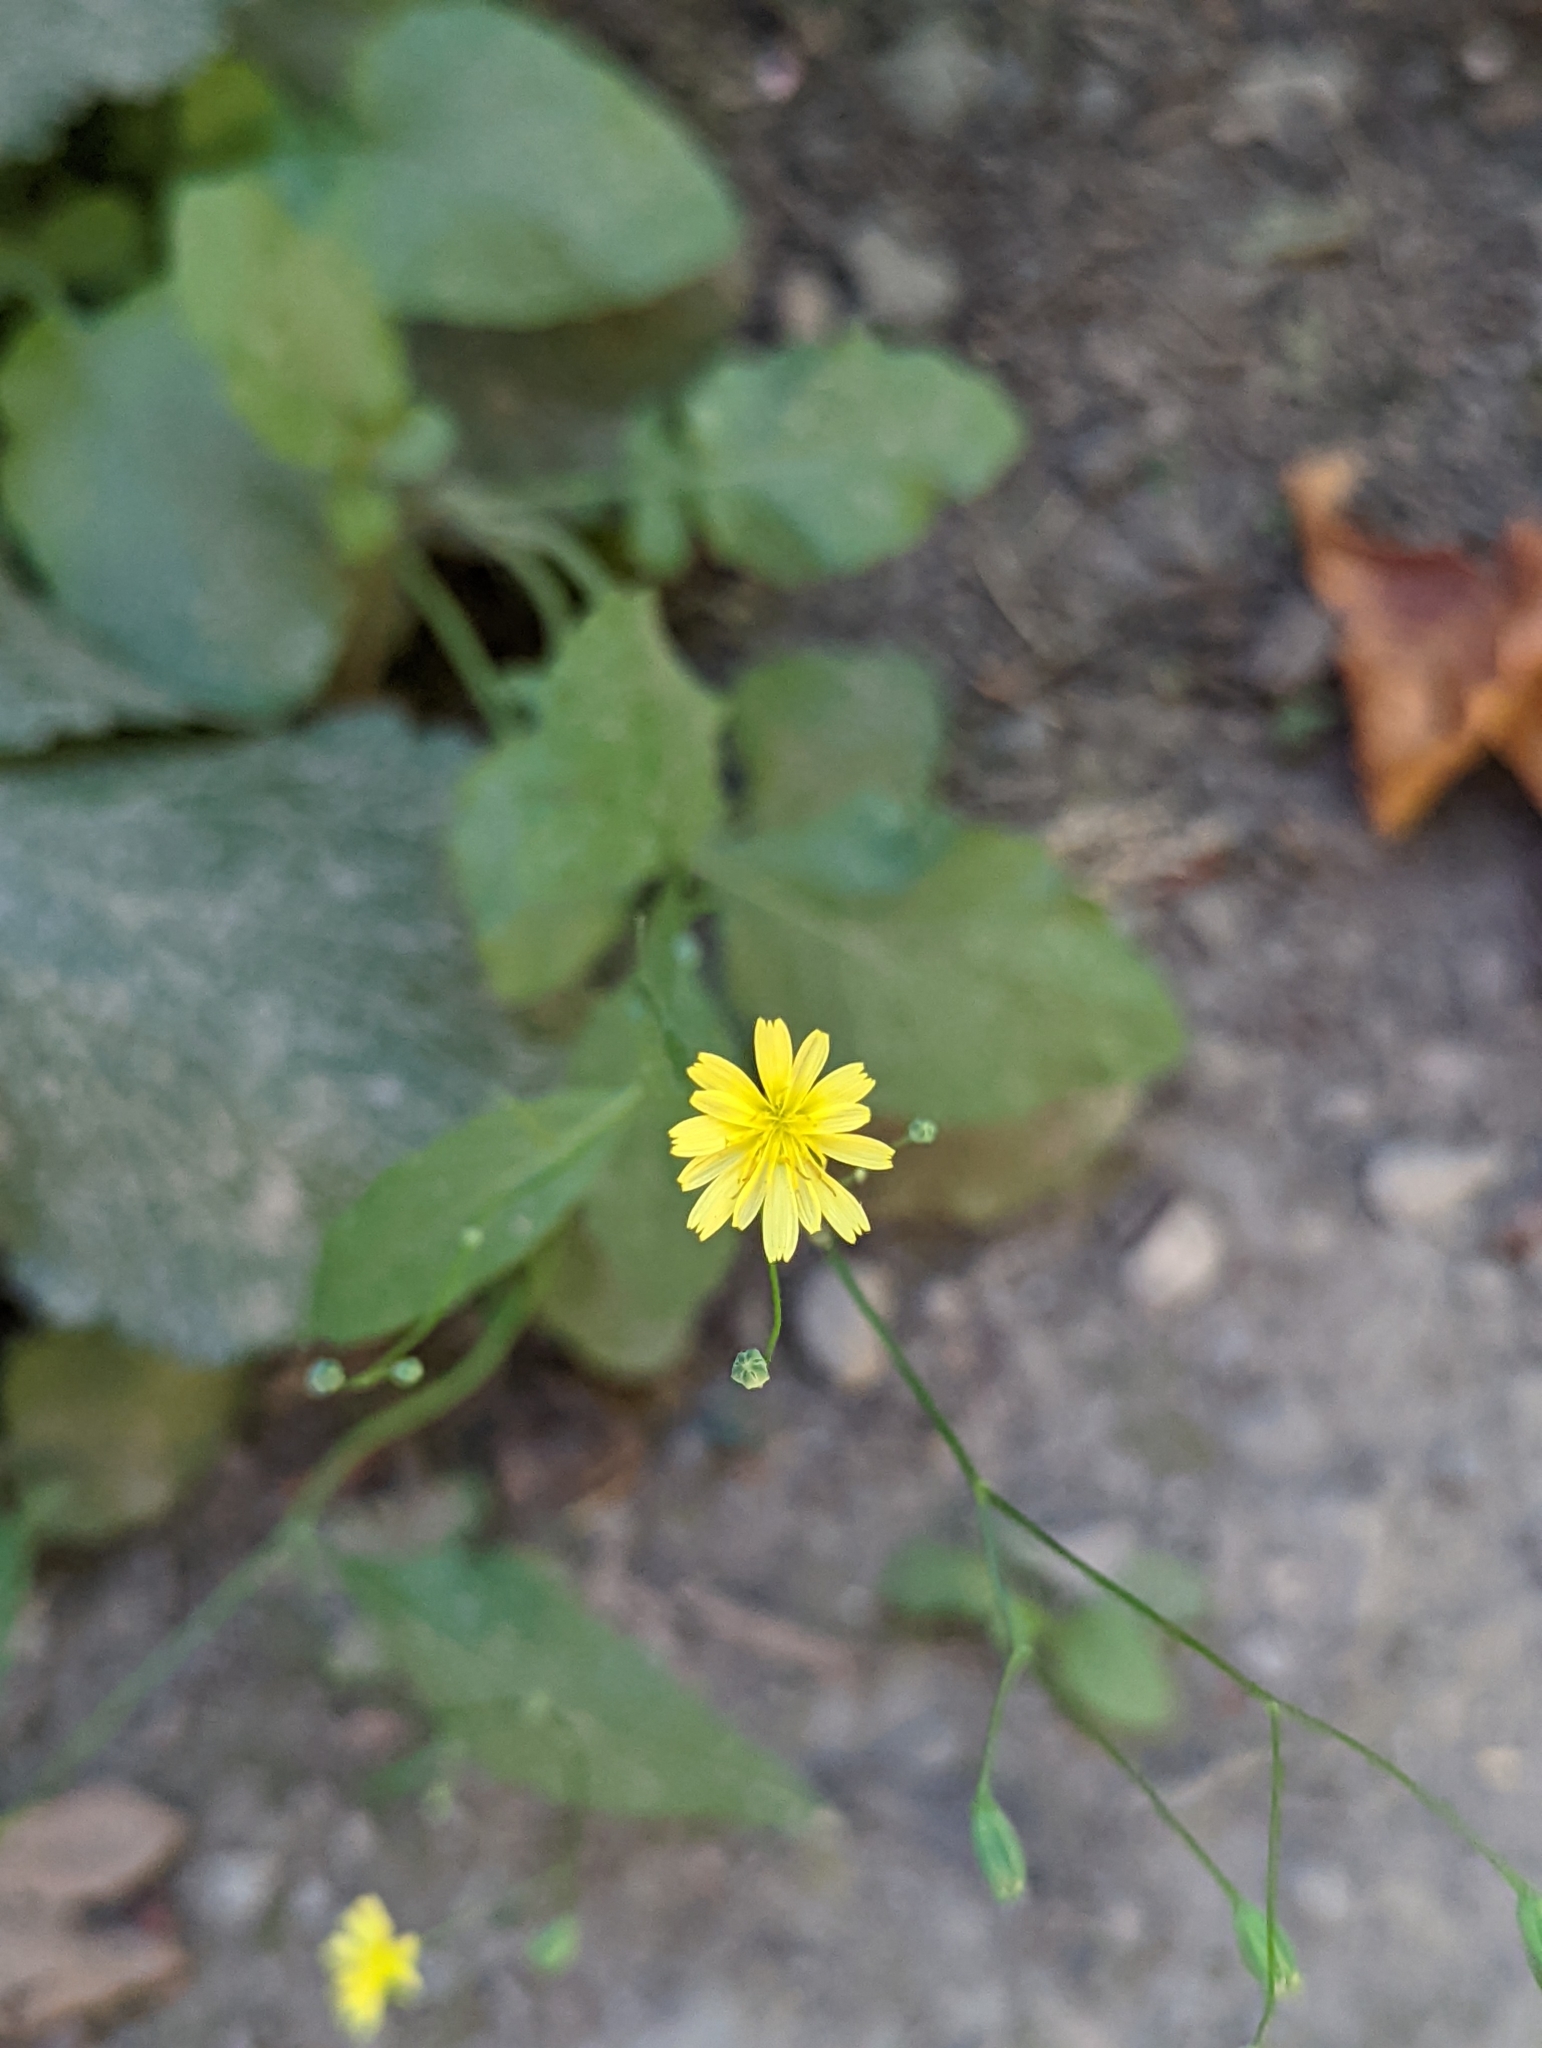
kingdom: Plantae
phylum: Tracheophyta
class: Magnoliopsida
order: Asterales
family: Asteraceae
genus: Lapsana
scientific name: Lapsana communis
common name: Nipplewort
